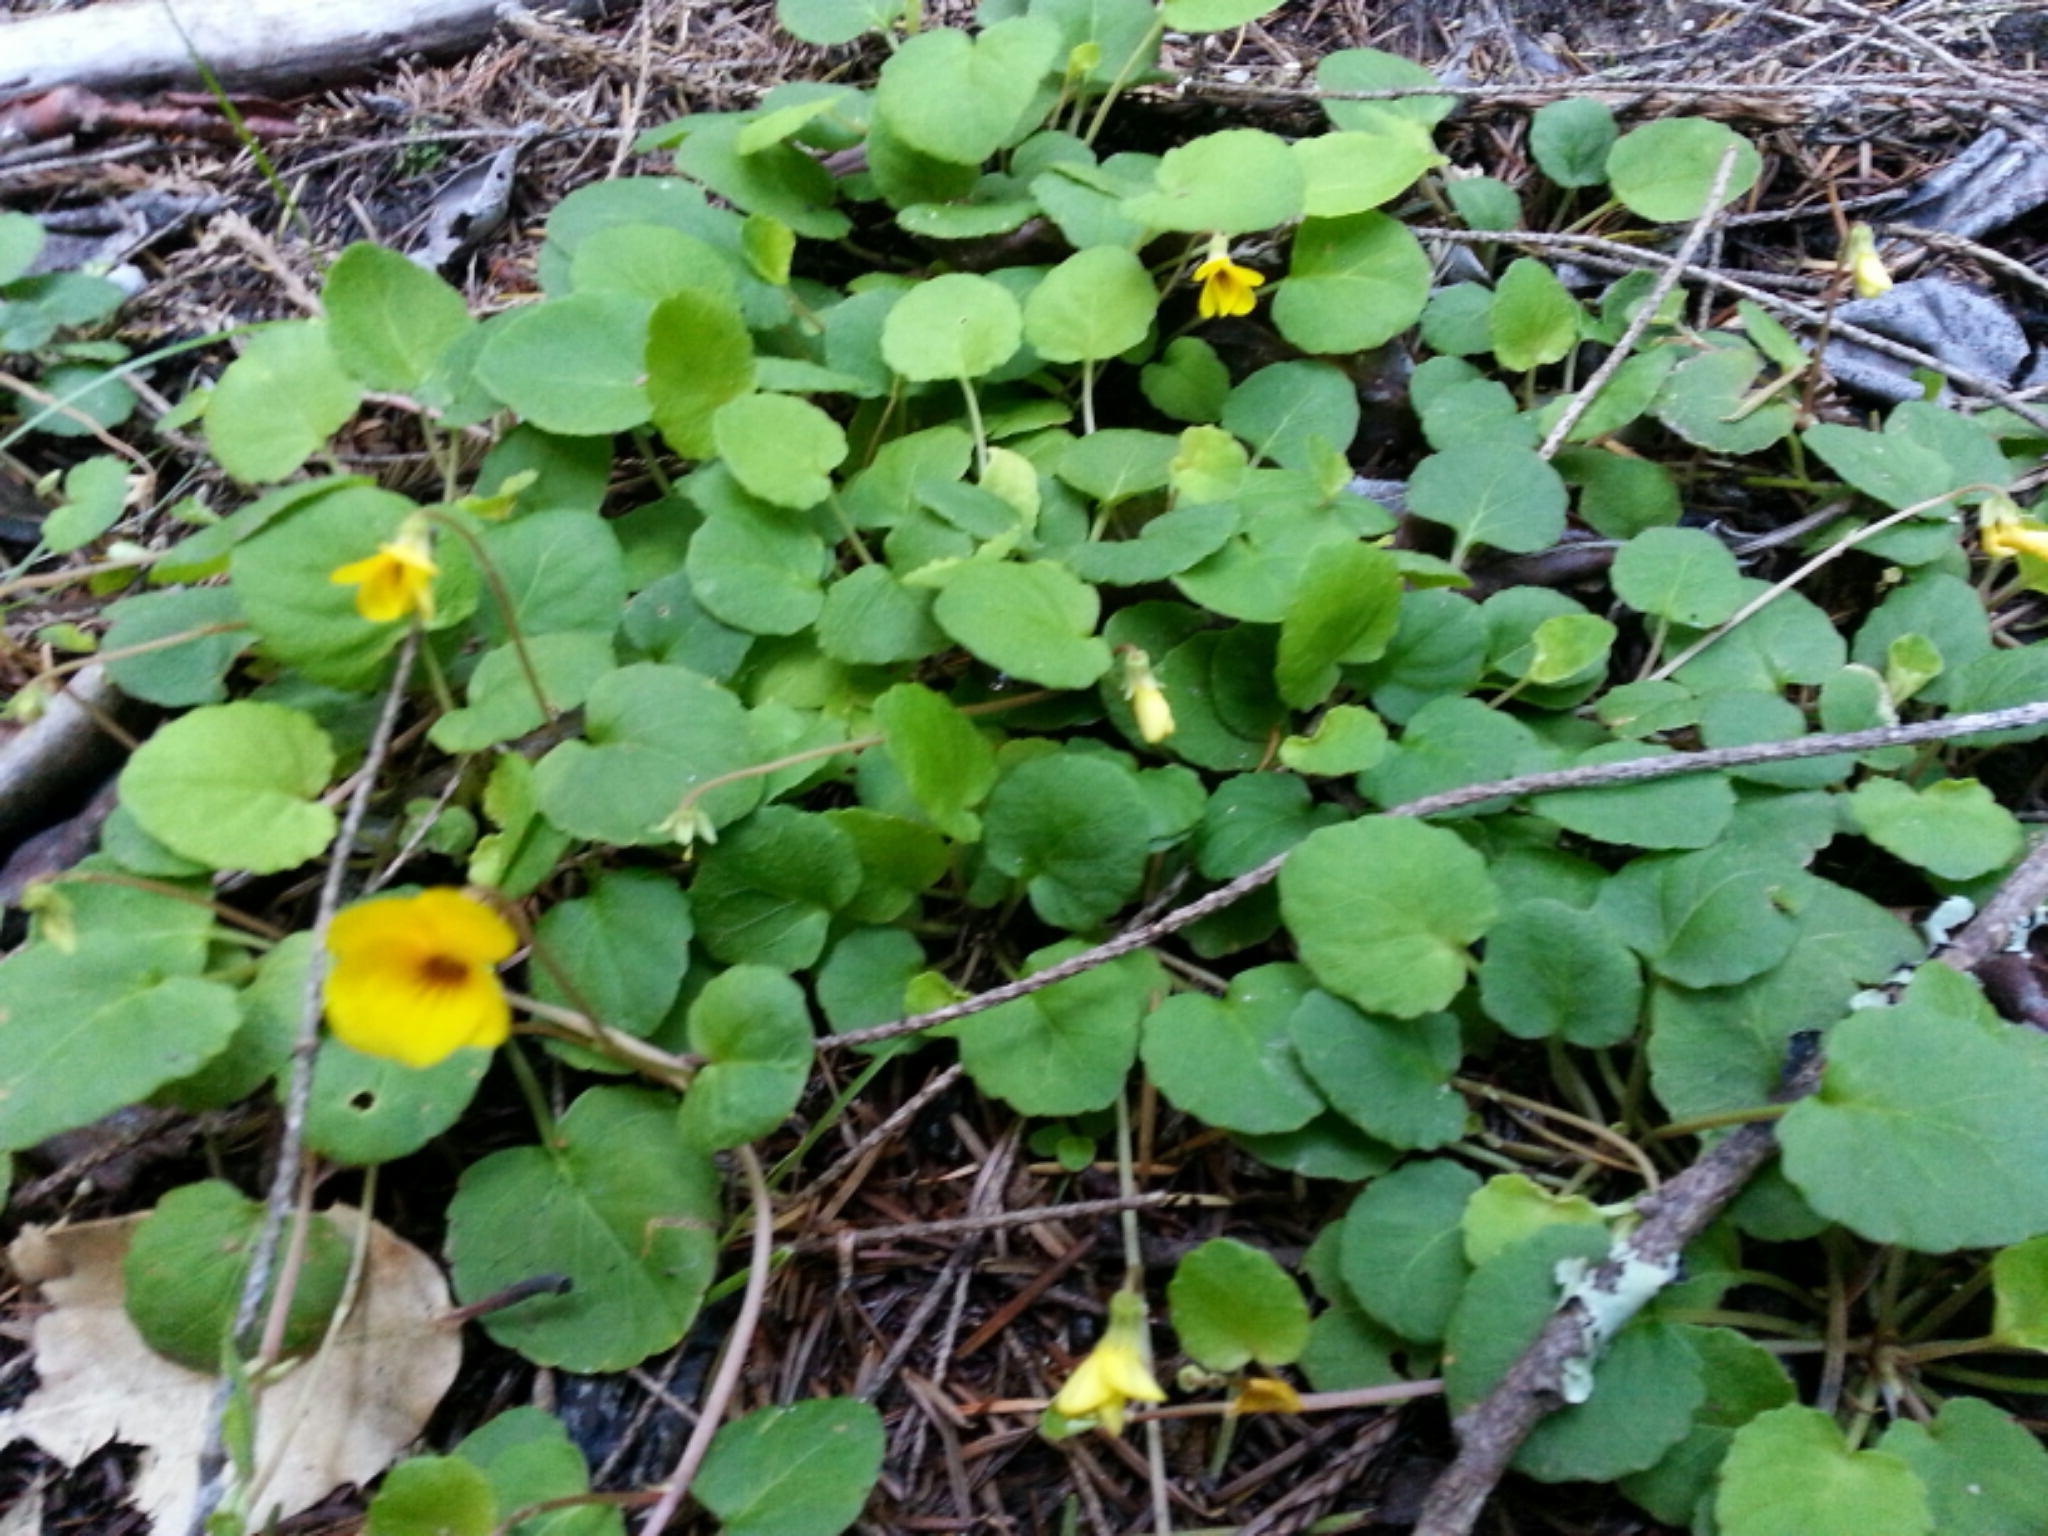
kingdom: Plantae
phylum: Tracheophyta
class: Magnoliopsida
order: Malpighiales
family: Violaceae
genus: Viola
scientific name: Viola sempervirens
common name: Evergreen violet
